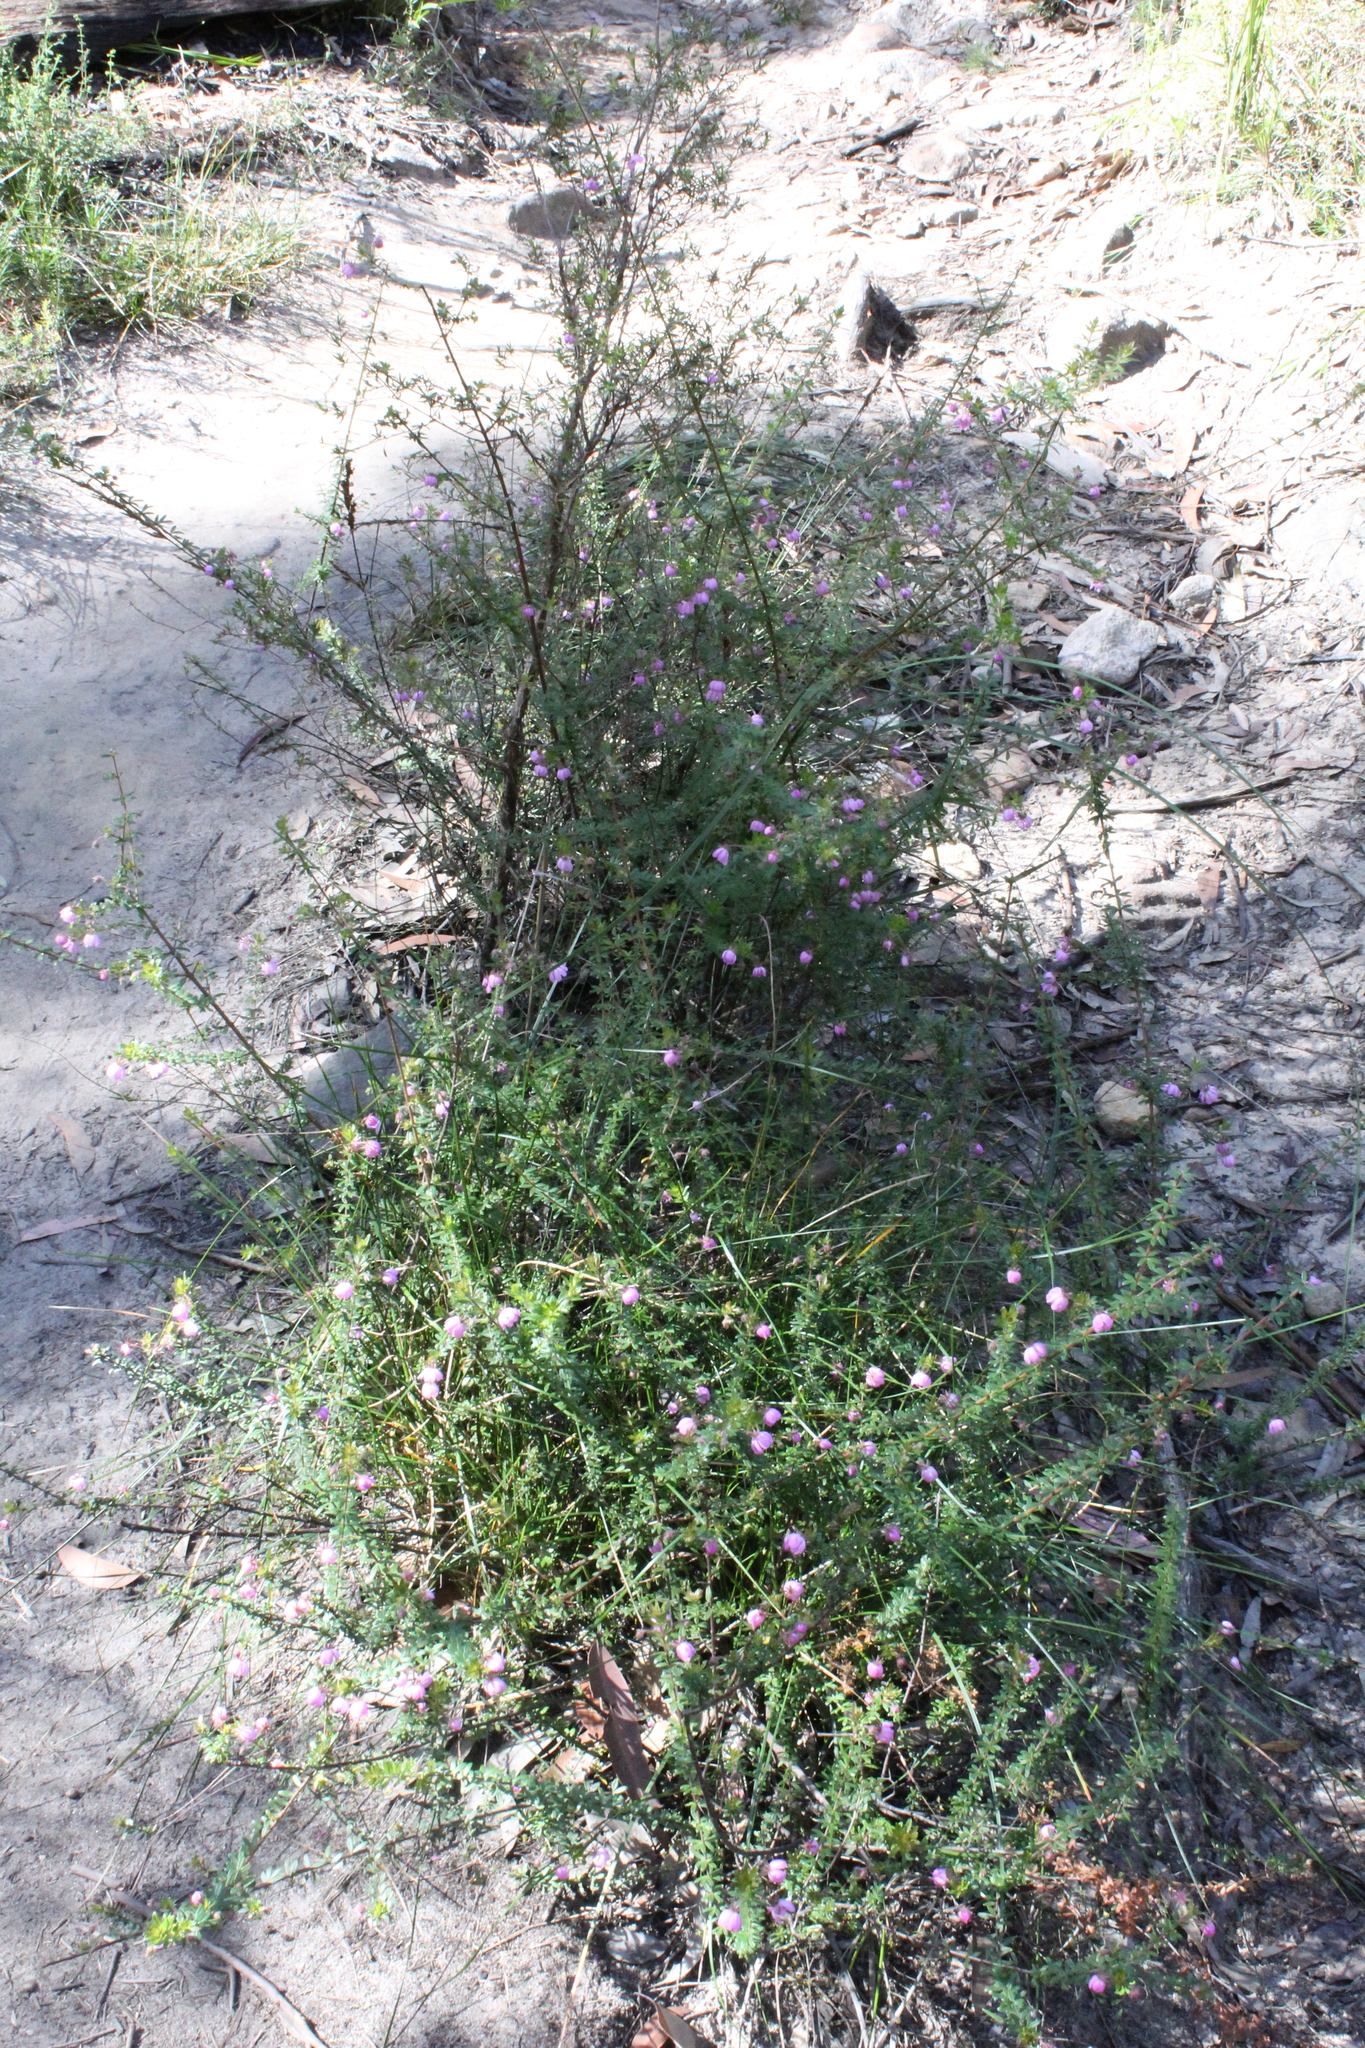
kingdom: Plantae
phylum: Tracheophyta
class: Magnoliopsida
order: Oxalidales
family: Cunoniaceae
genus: Bauera
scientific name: Bauera rubioides
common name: River-rose
